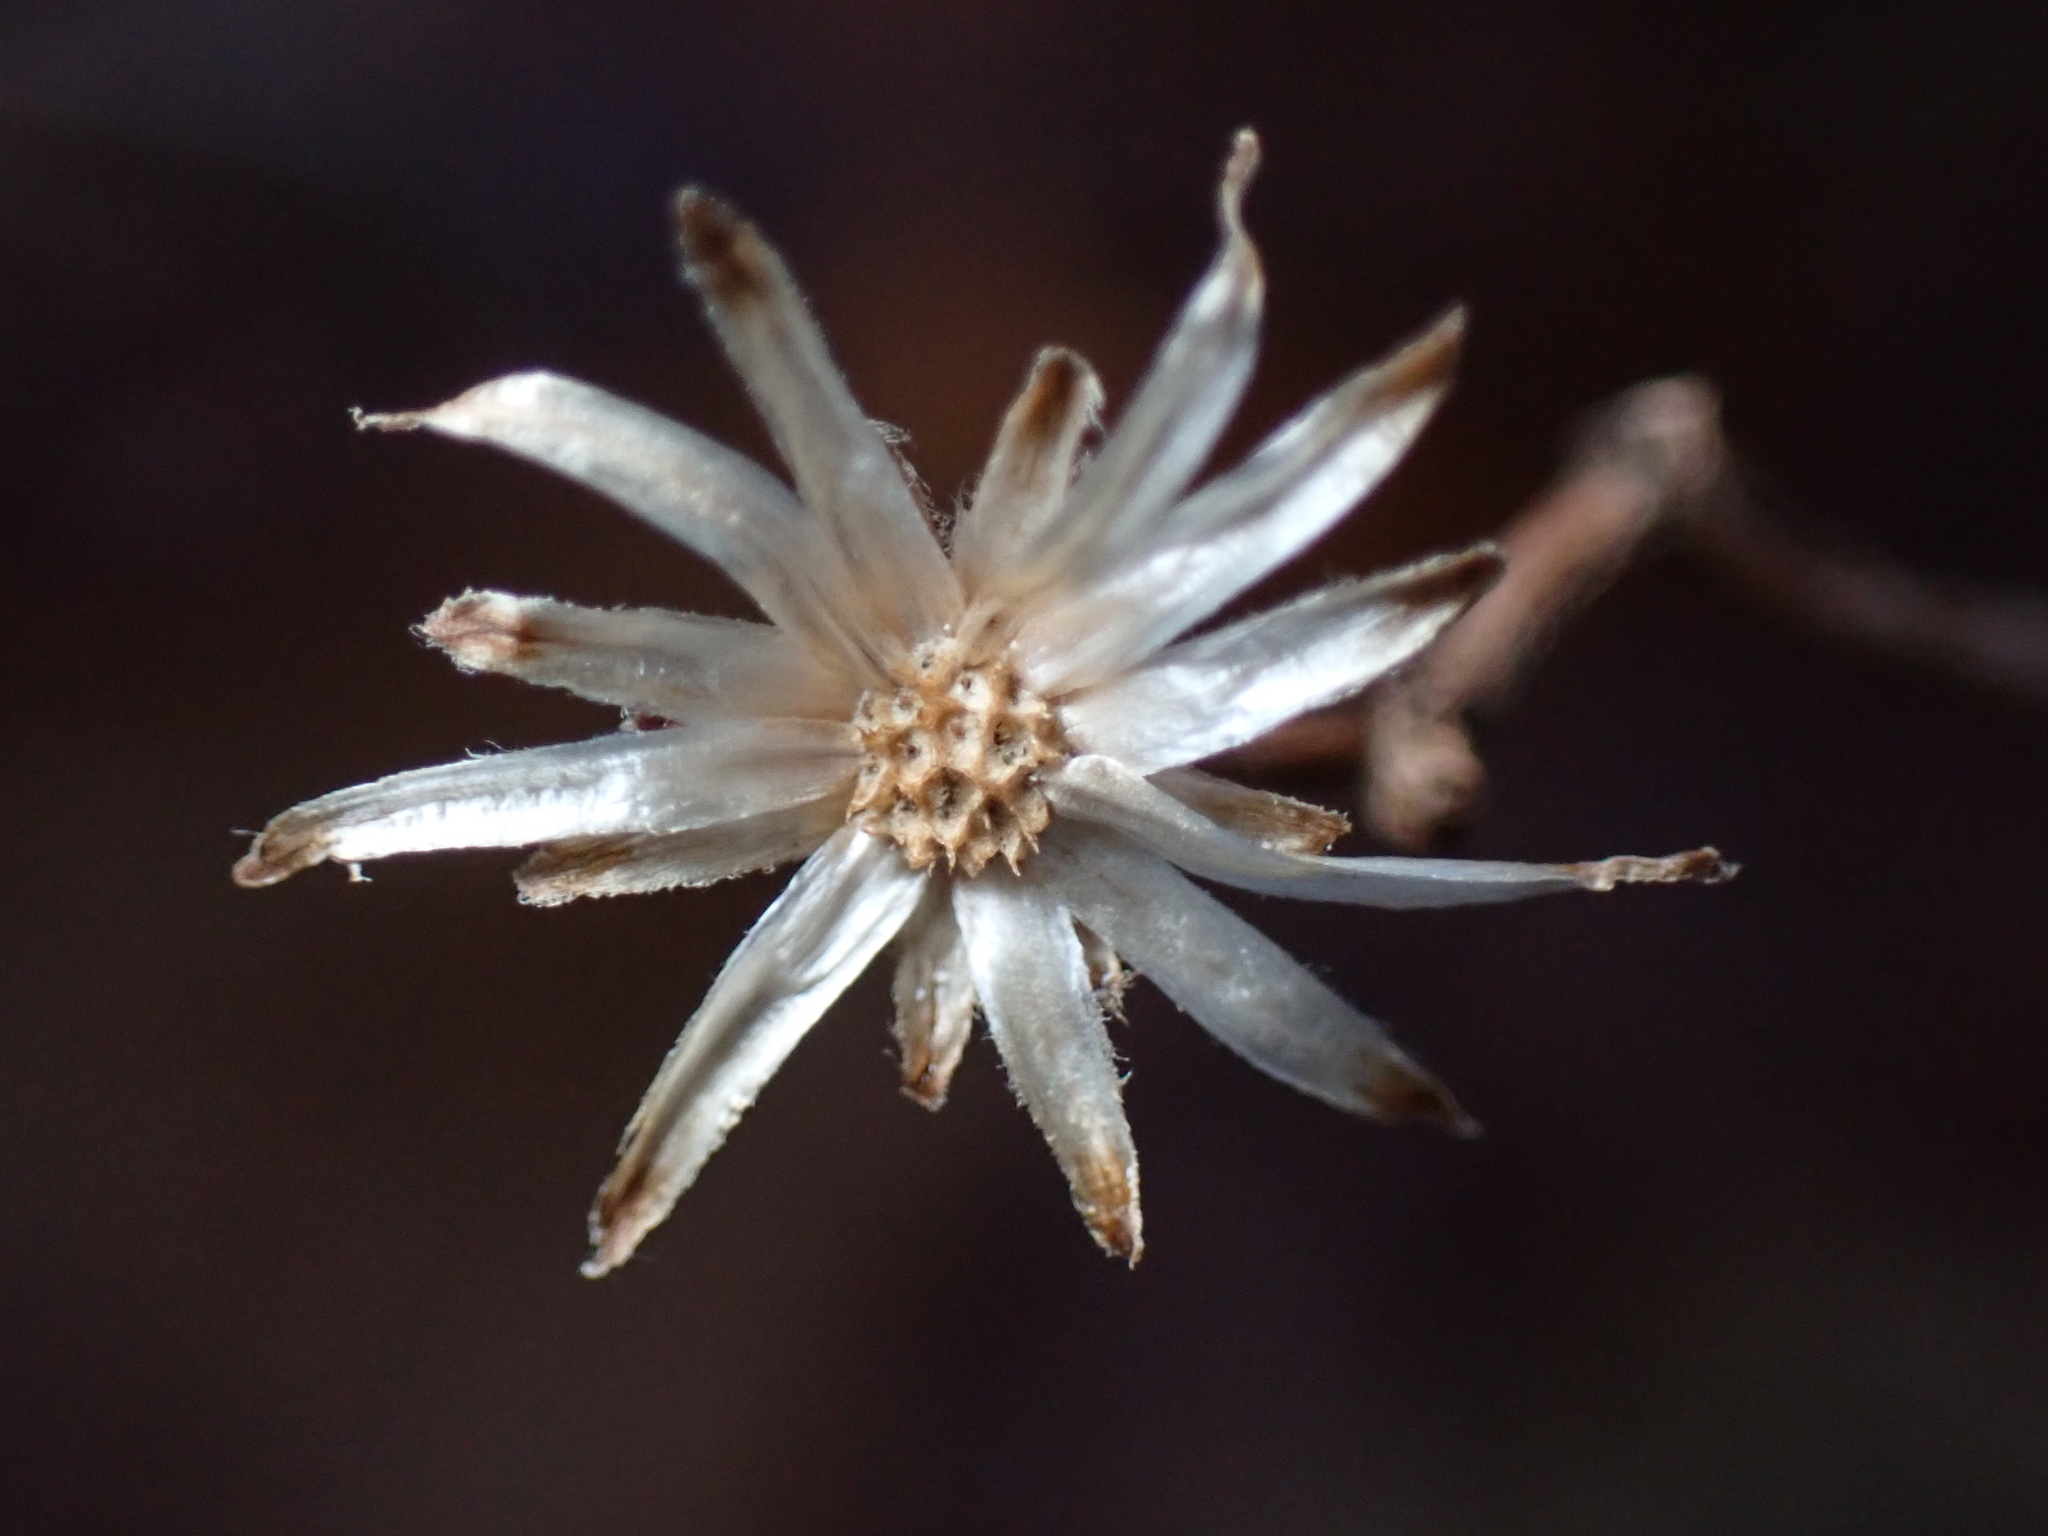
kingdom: Plantae
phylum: Tracheophyta
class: Magnoliopsida
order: Asterales
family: Asteraceae
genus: Eurybia
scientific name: Eurybia divaricata
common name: White wood aster
